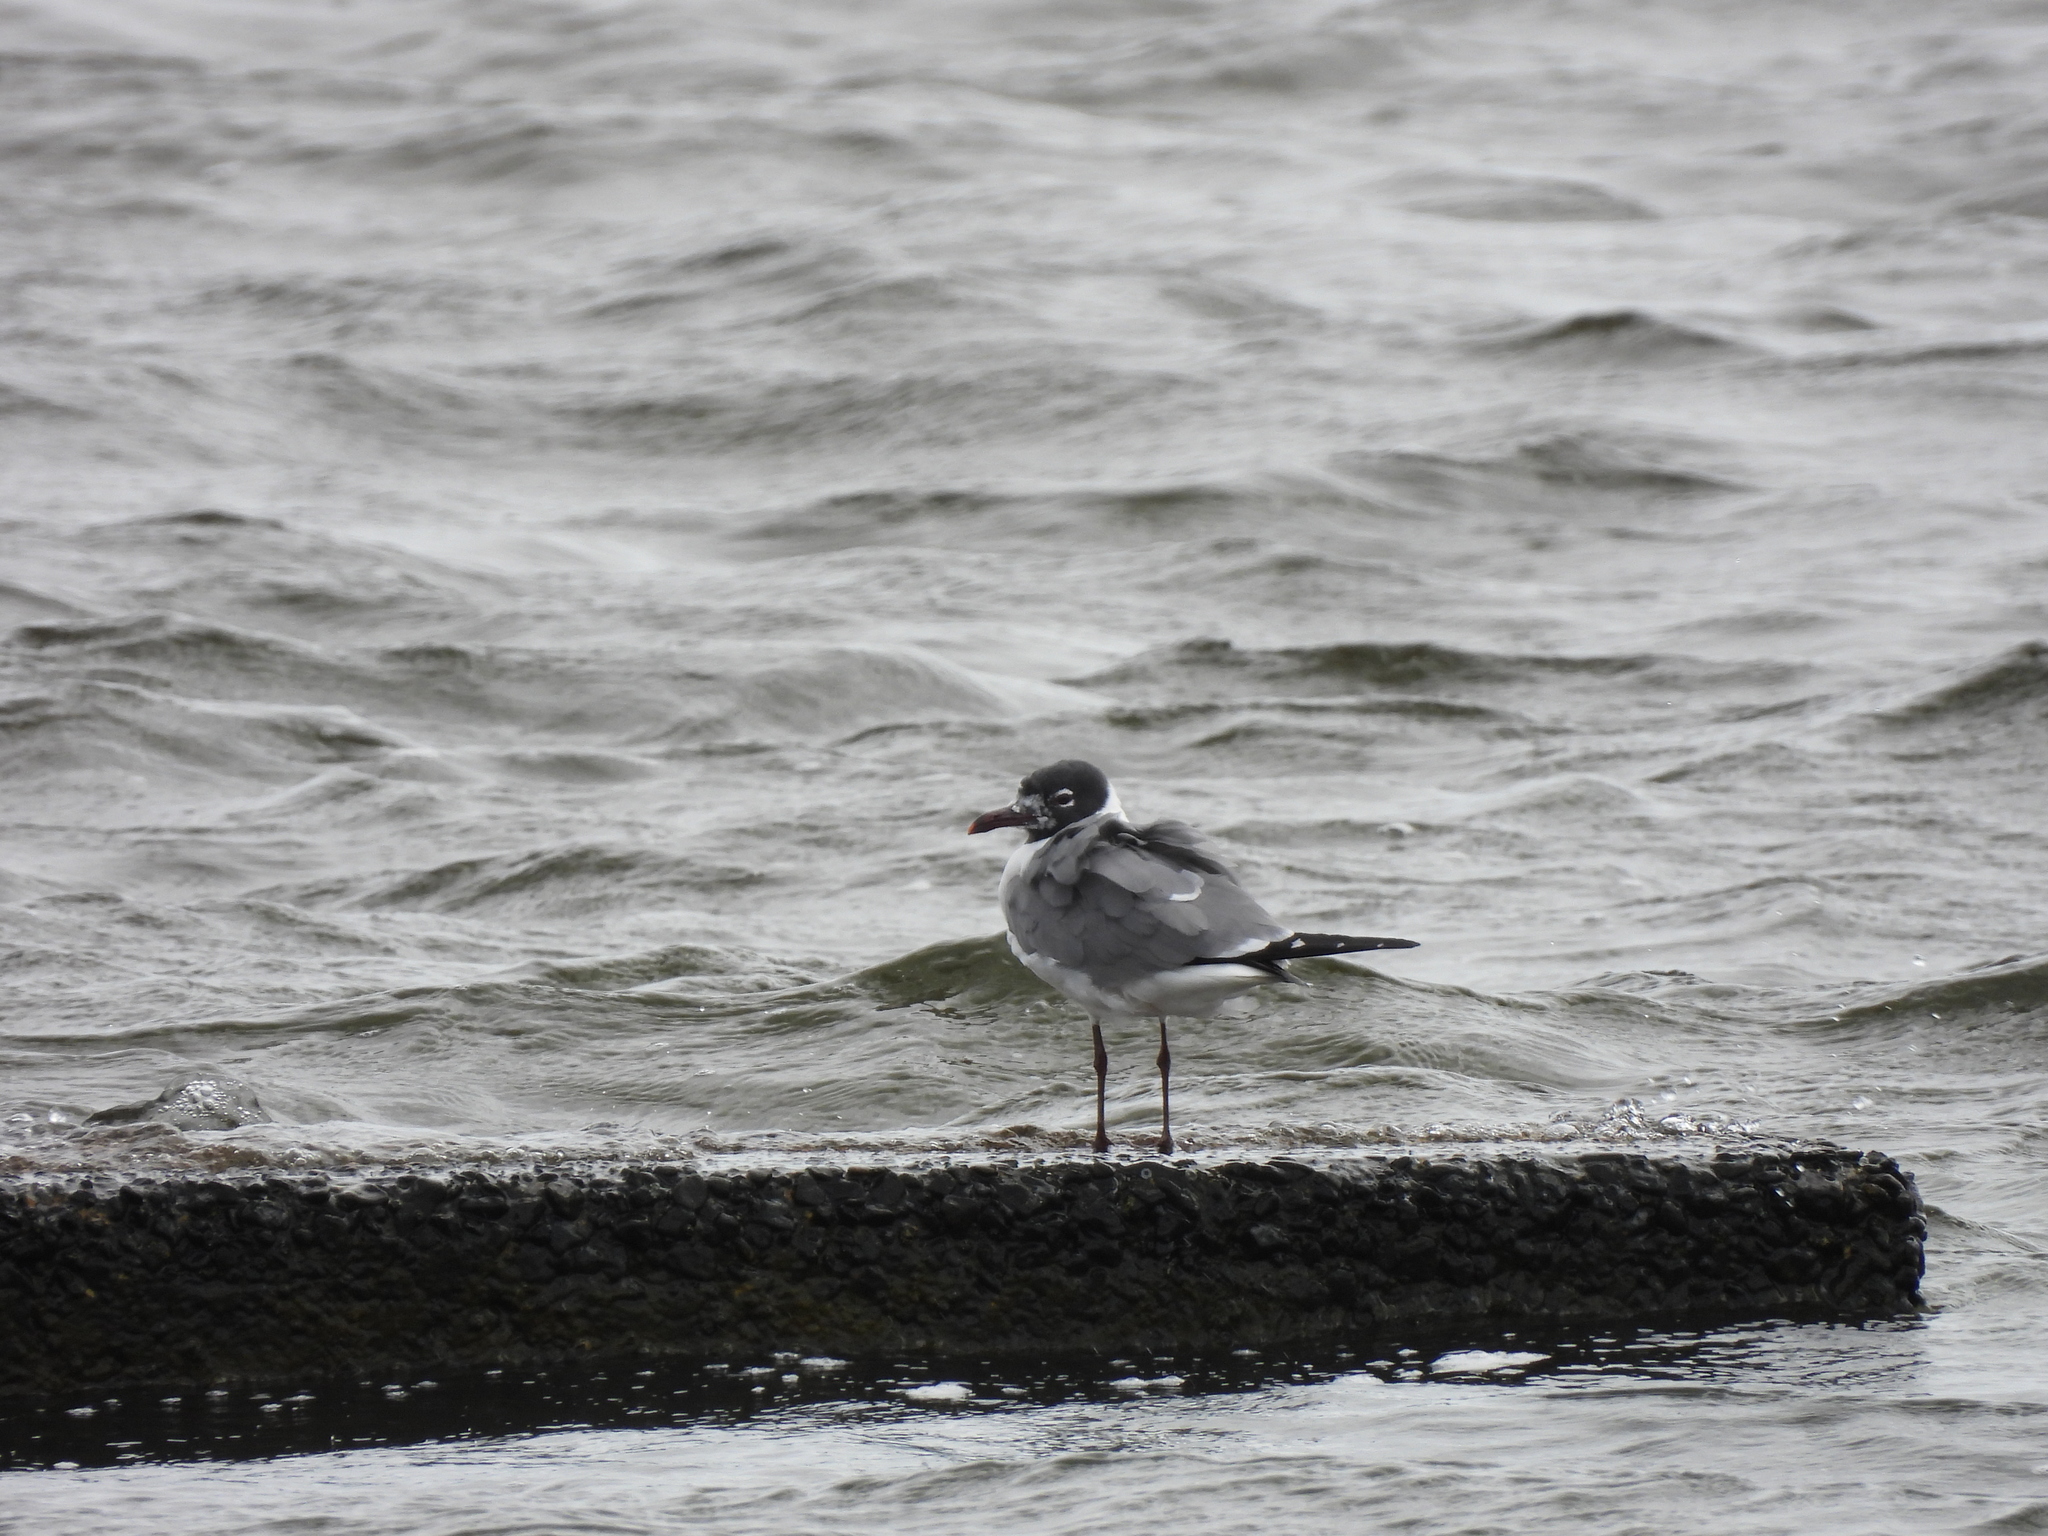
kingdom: Animalia
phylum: Chordata
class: Aves
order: Charadriiformes
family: Laridae
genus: Leucophaeus
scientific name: Leucophaeus atricilla
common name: Laughing gull
